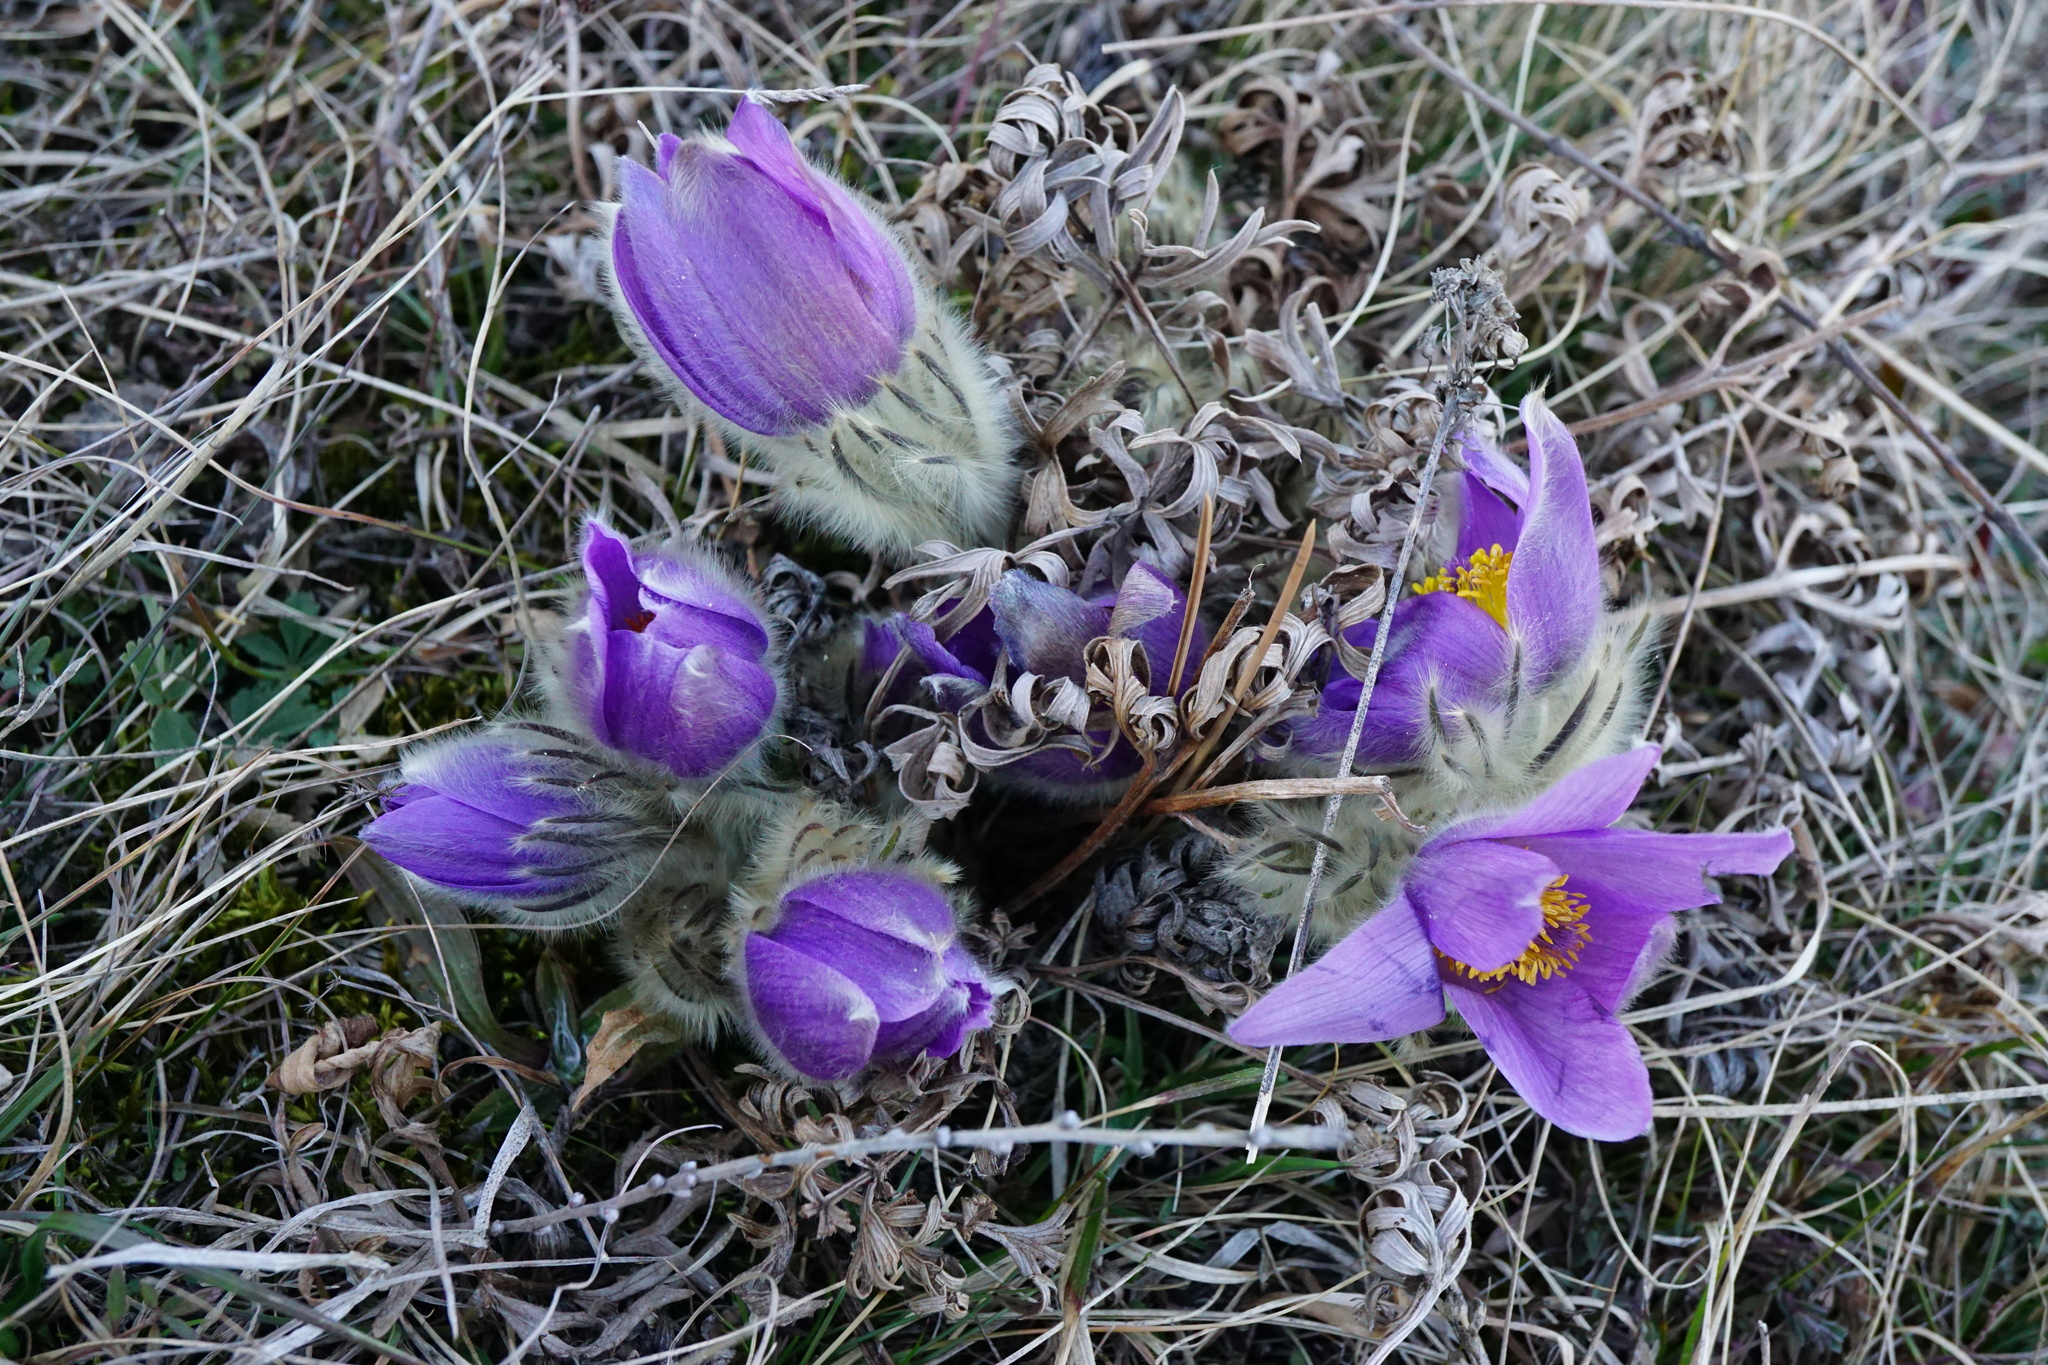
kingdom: Plantae
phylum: Tracheophyta
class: Magnoliopsida
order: Ranunculales
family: Ranunculaceae
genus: Pulsatilla
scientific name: Pulsatilla grandis
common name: Greater pasque flower
